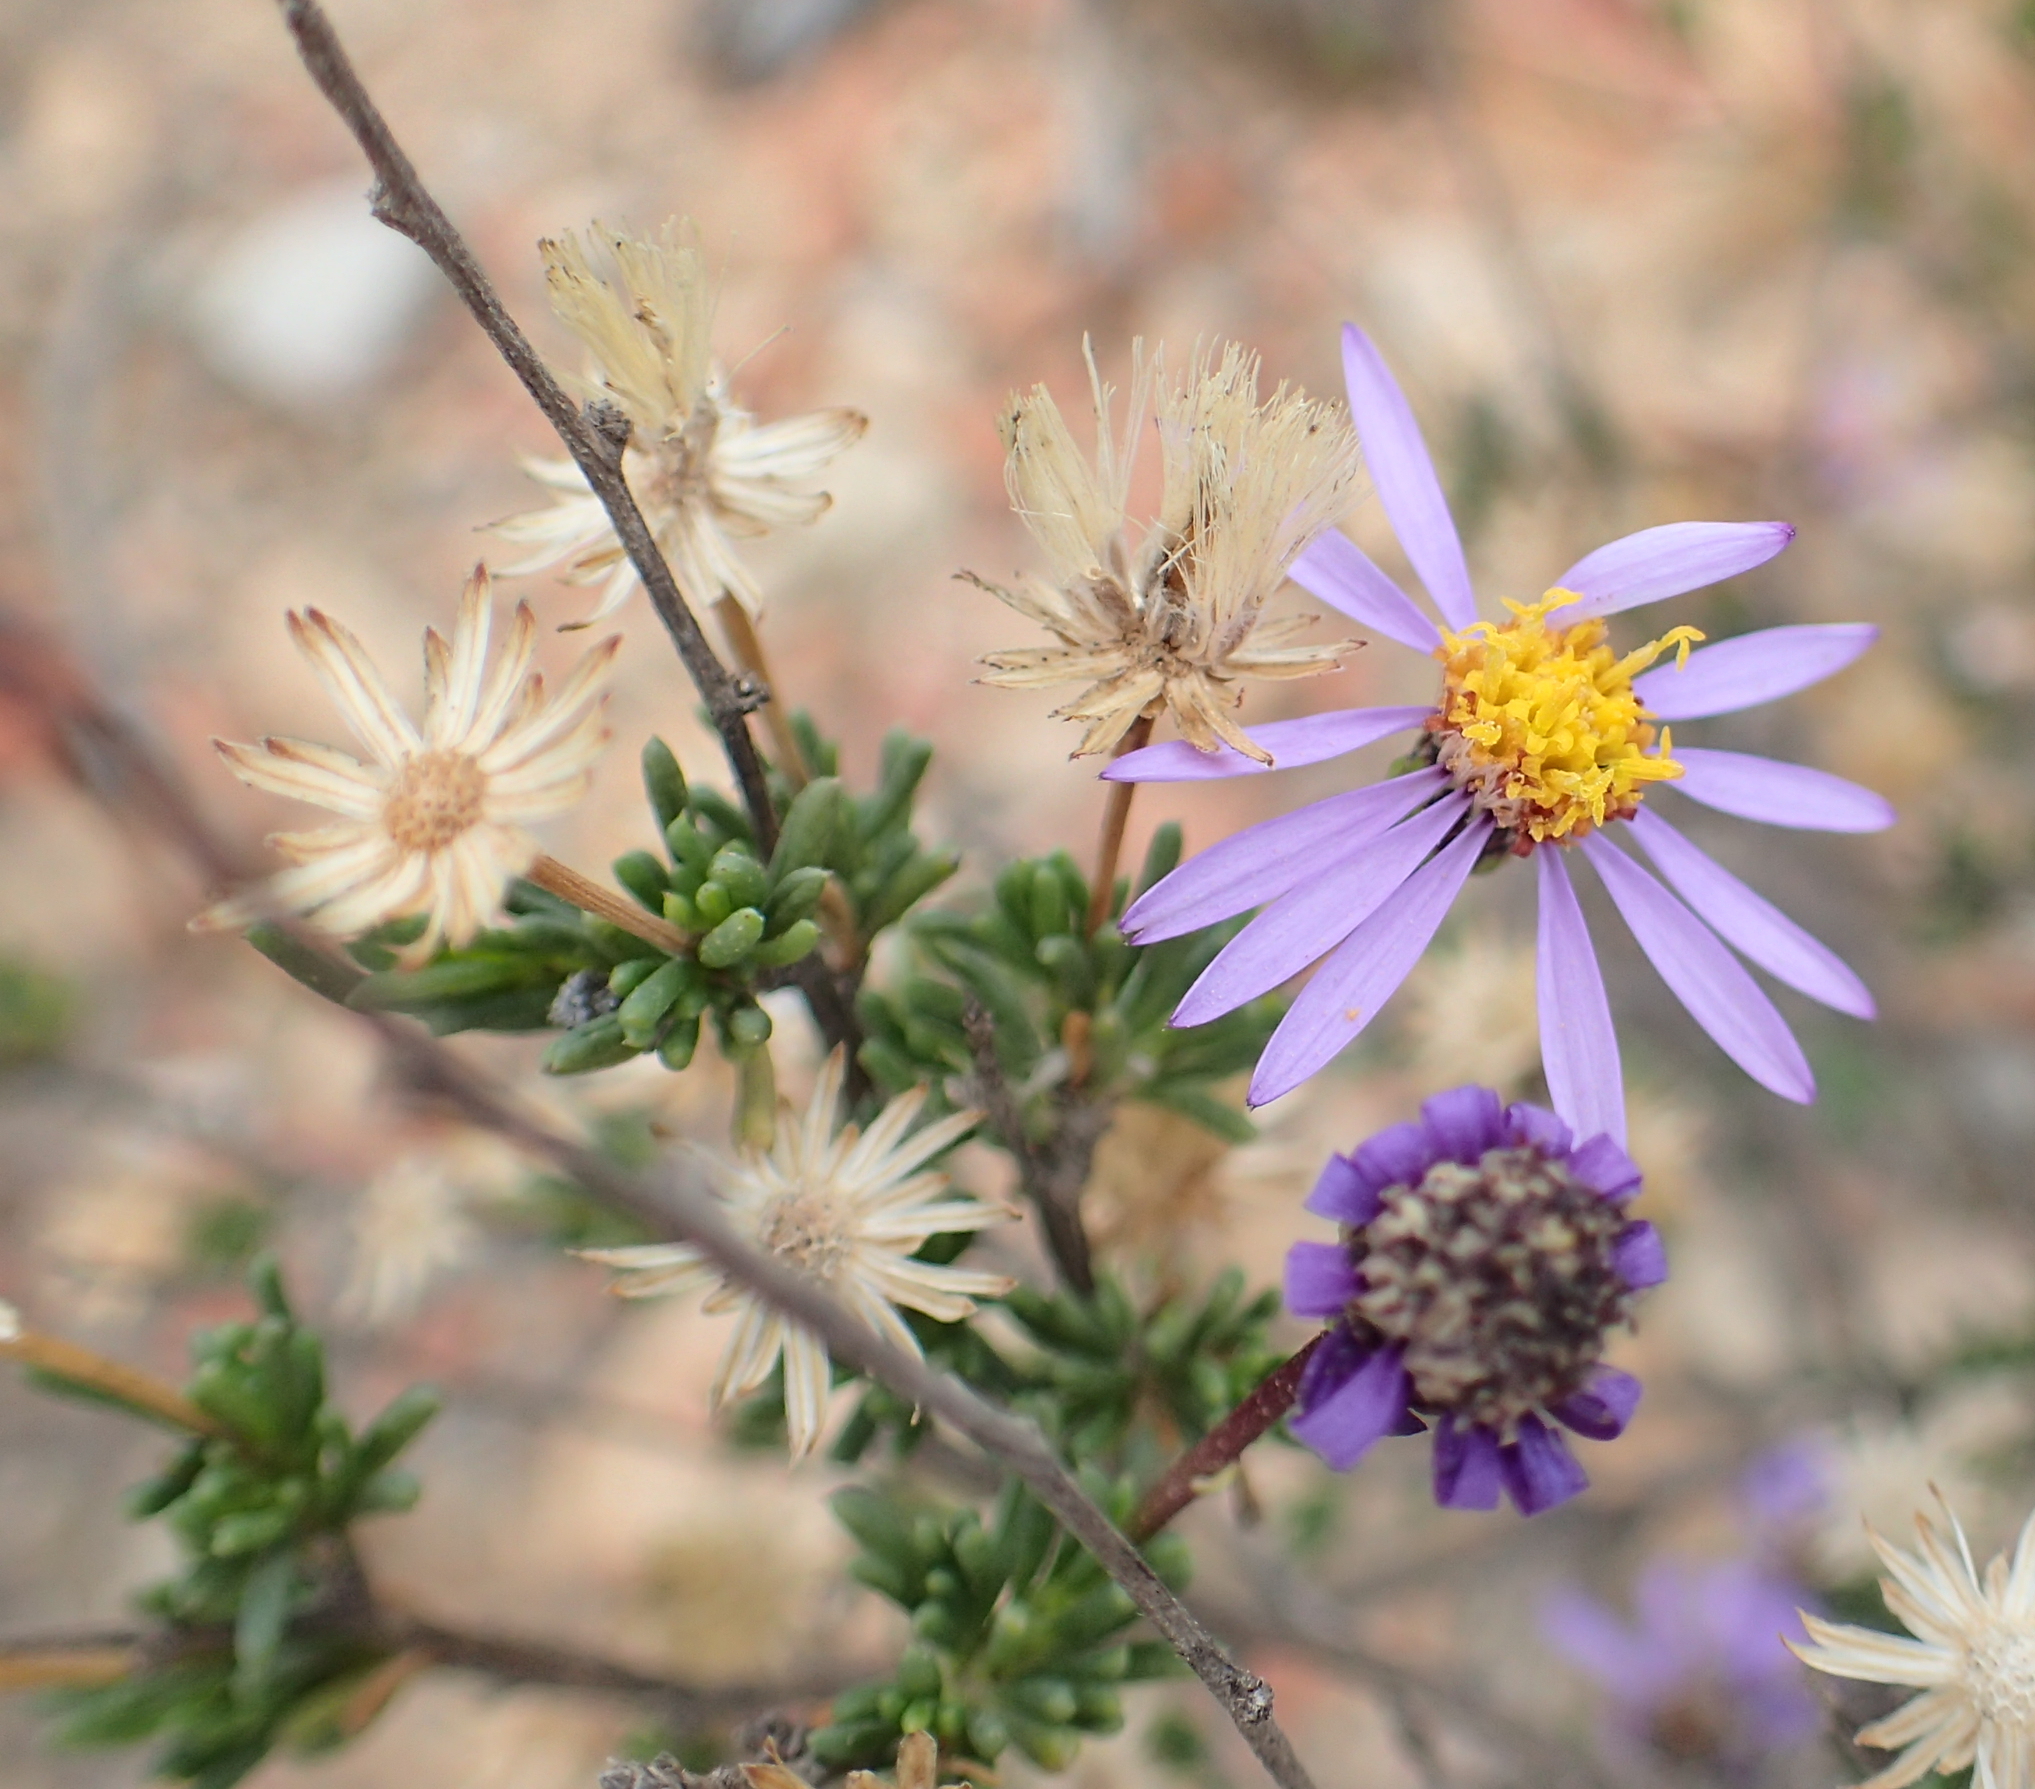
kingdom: Plantae
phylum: Tracheophyta
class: Magnoliopsida
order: Asterales
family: Asteraceae
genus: Felicia
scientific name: Felicia filifolia
